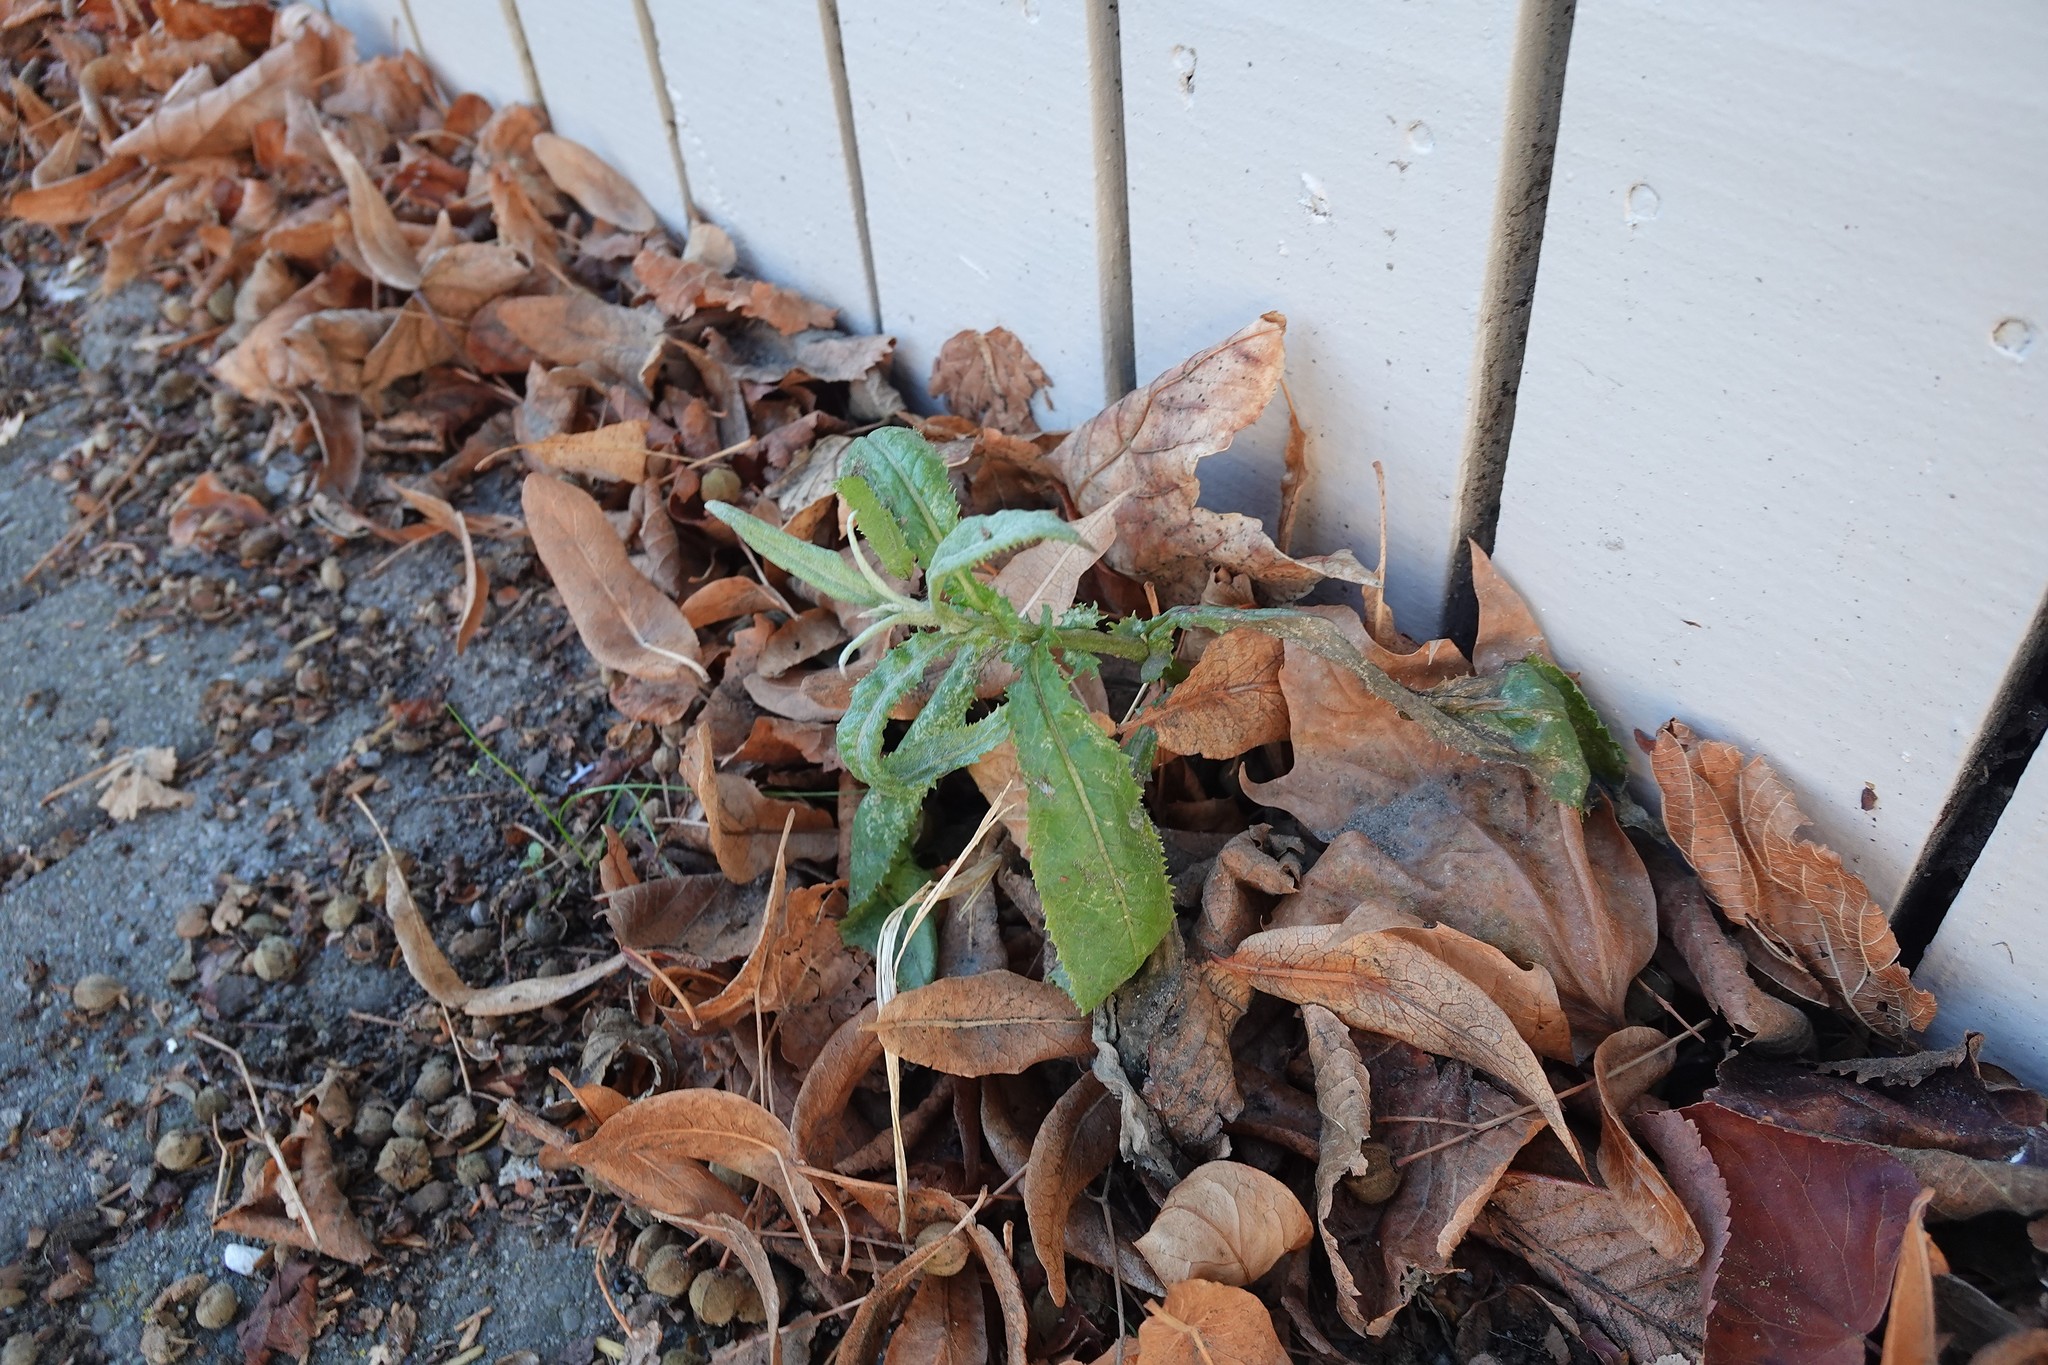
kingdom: Plantae
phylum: Tracheophyta
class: Magnoliopsida
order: Asterales
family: Asteraceae
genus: Senecio
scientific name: Senecio minimus
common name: Toothed fireweed
